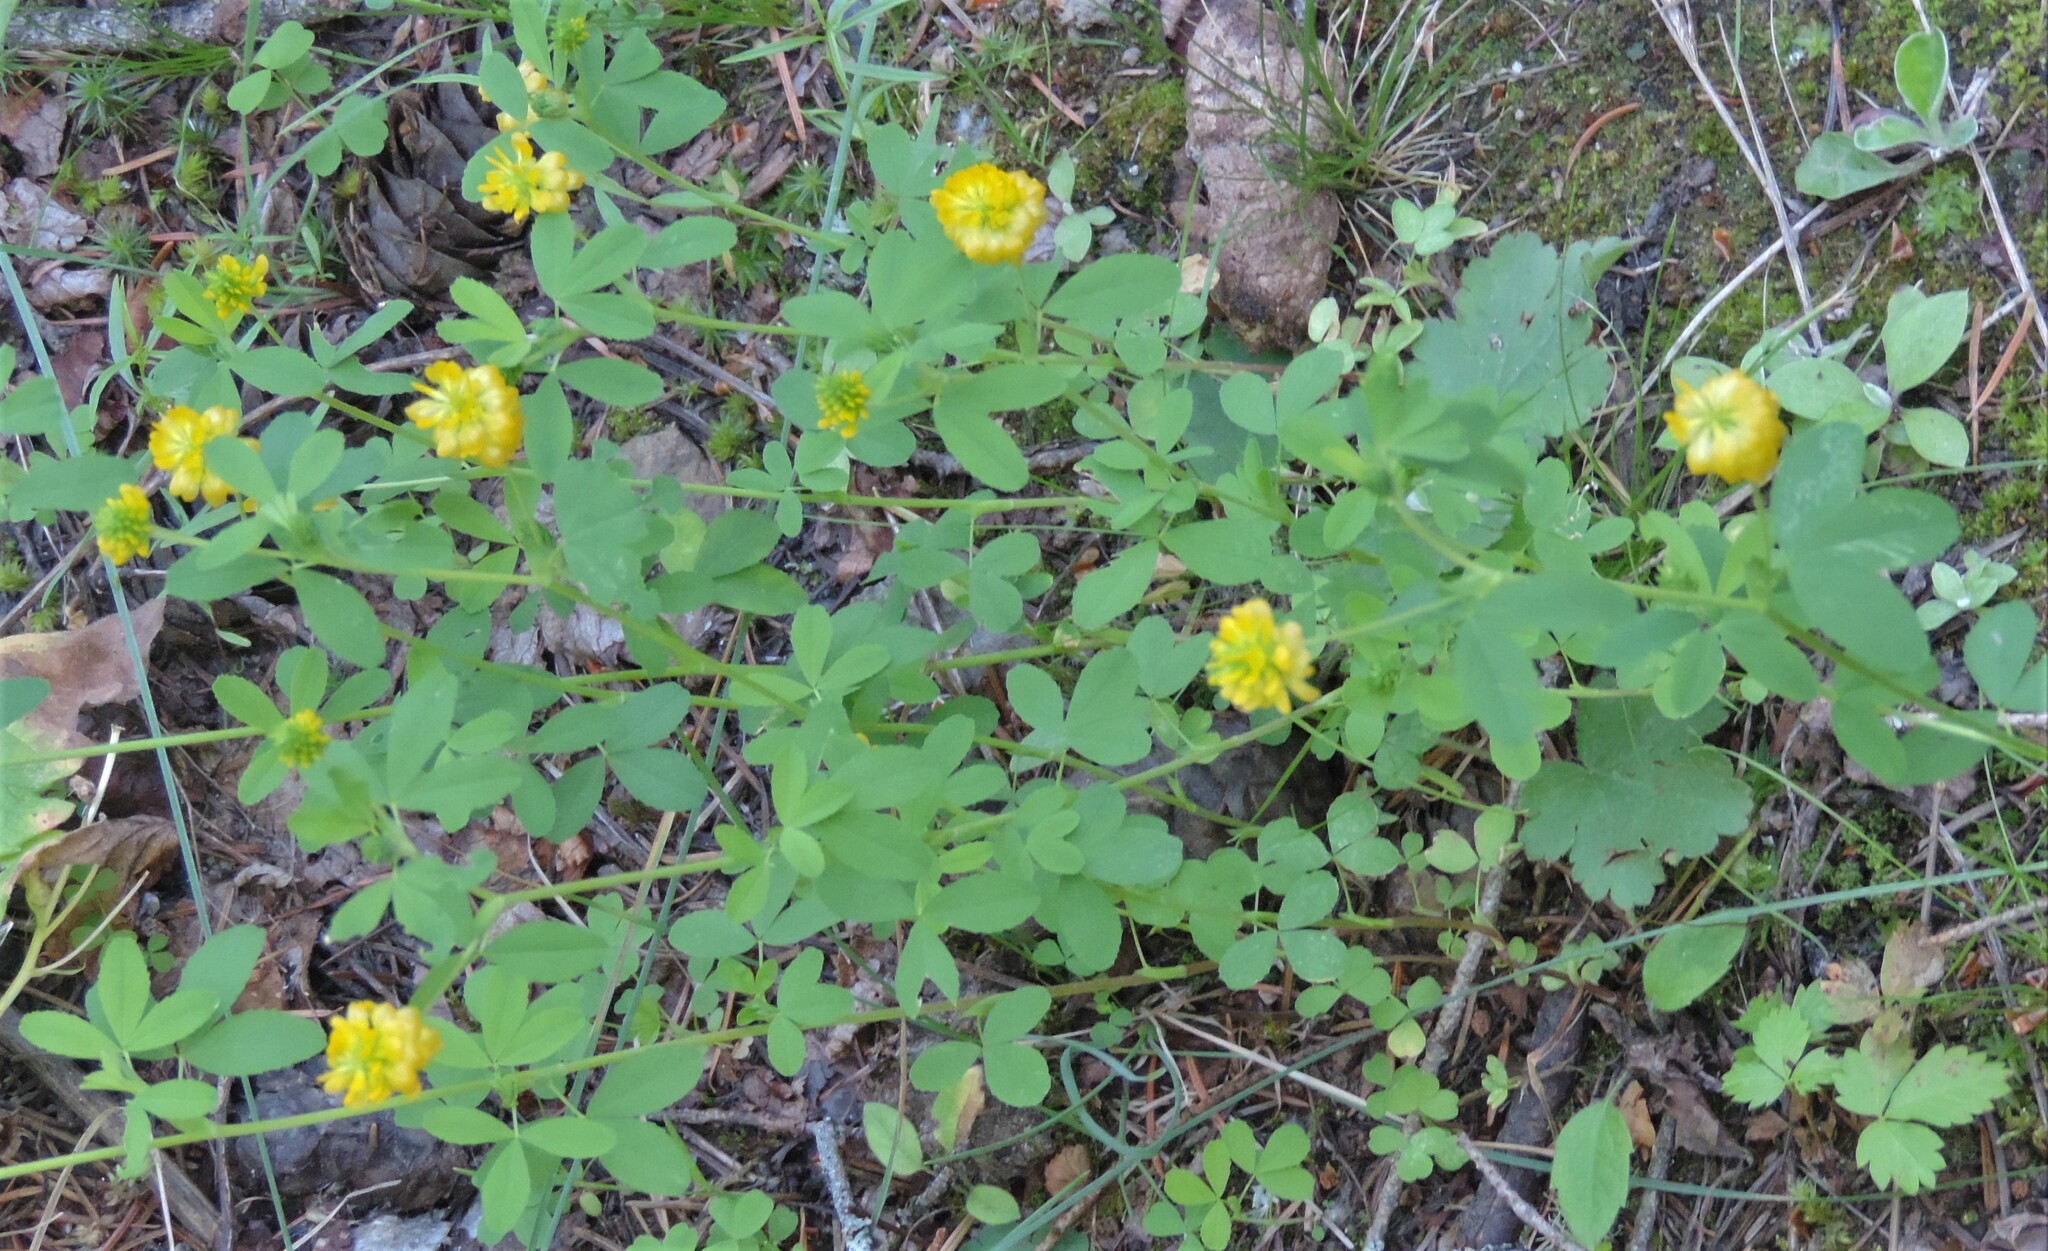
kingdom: Plantae
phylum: Tracheophyta
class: Magnoliopsida
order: Fabales
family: Fabaceae
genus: Trifolium
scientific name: Trifolium aureum
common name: Golden clover
